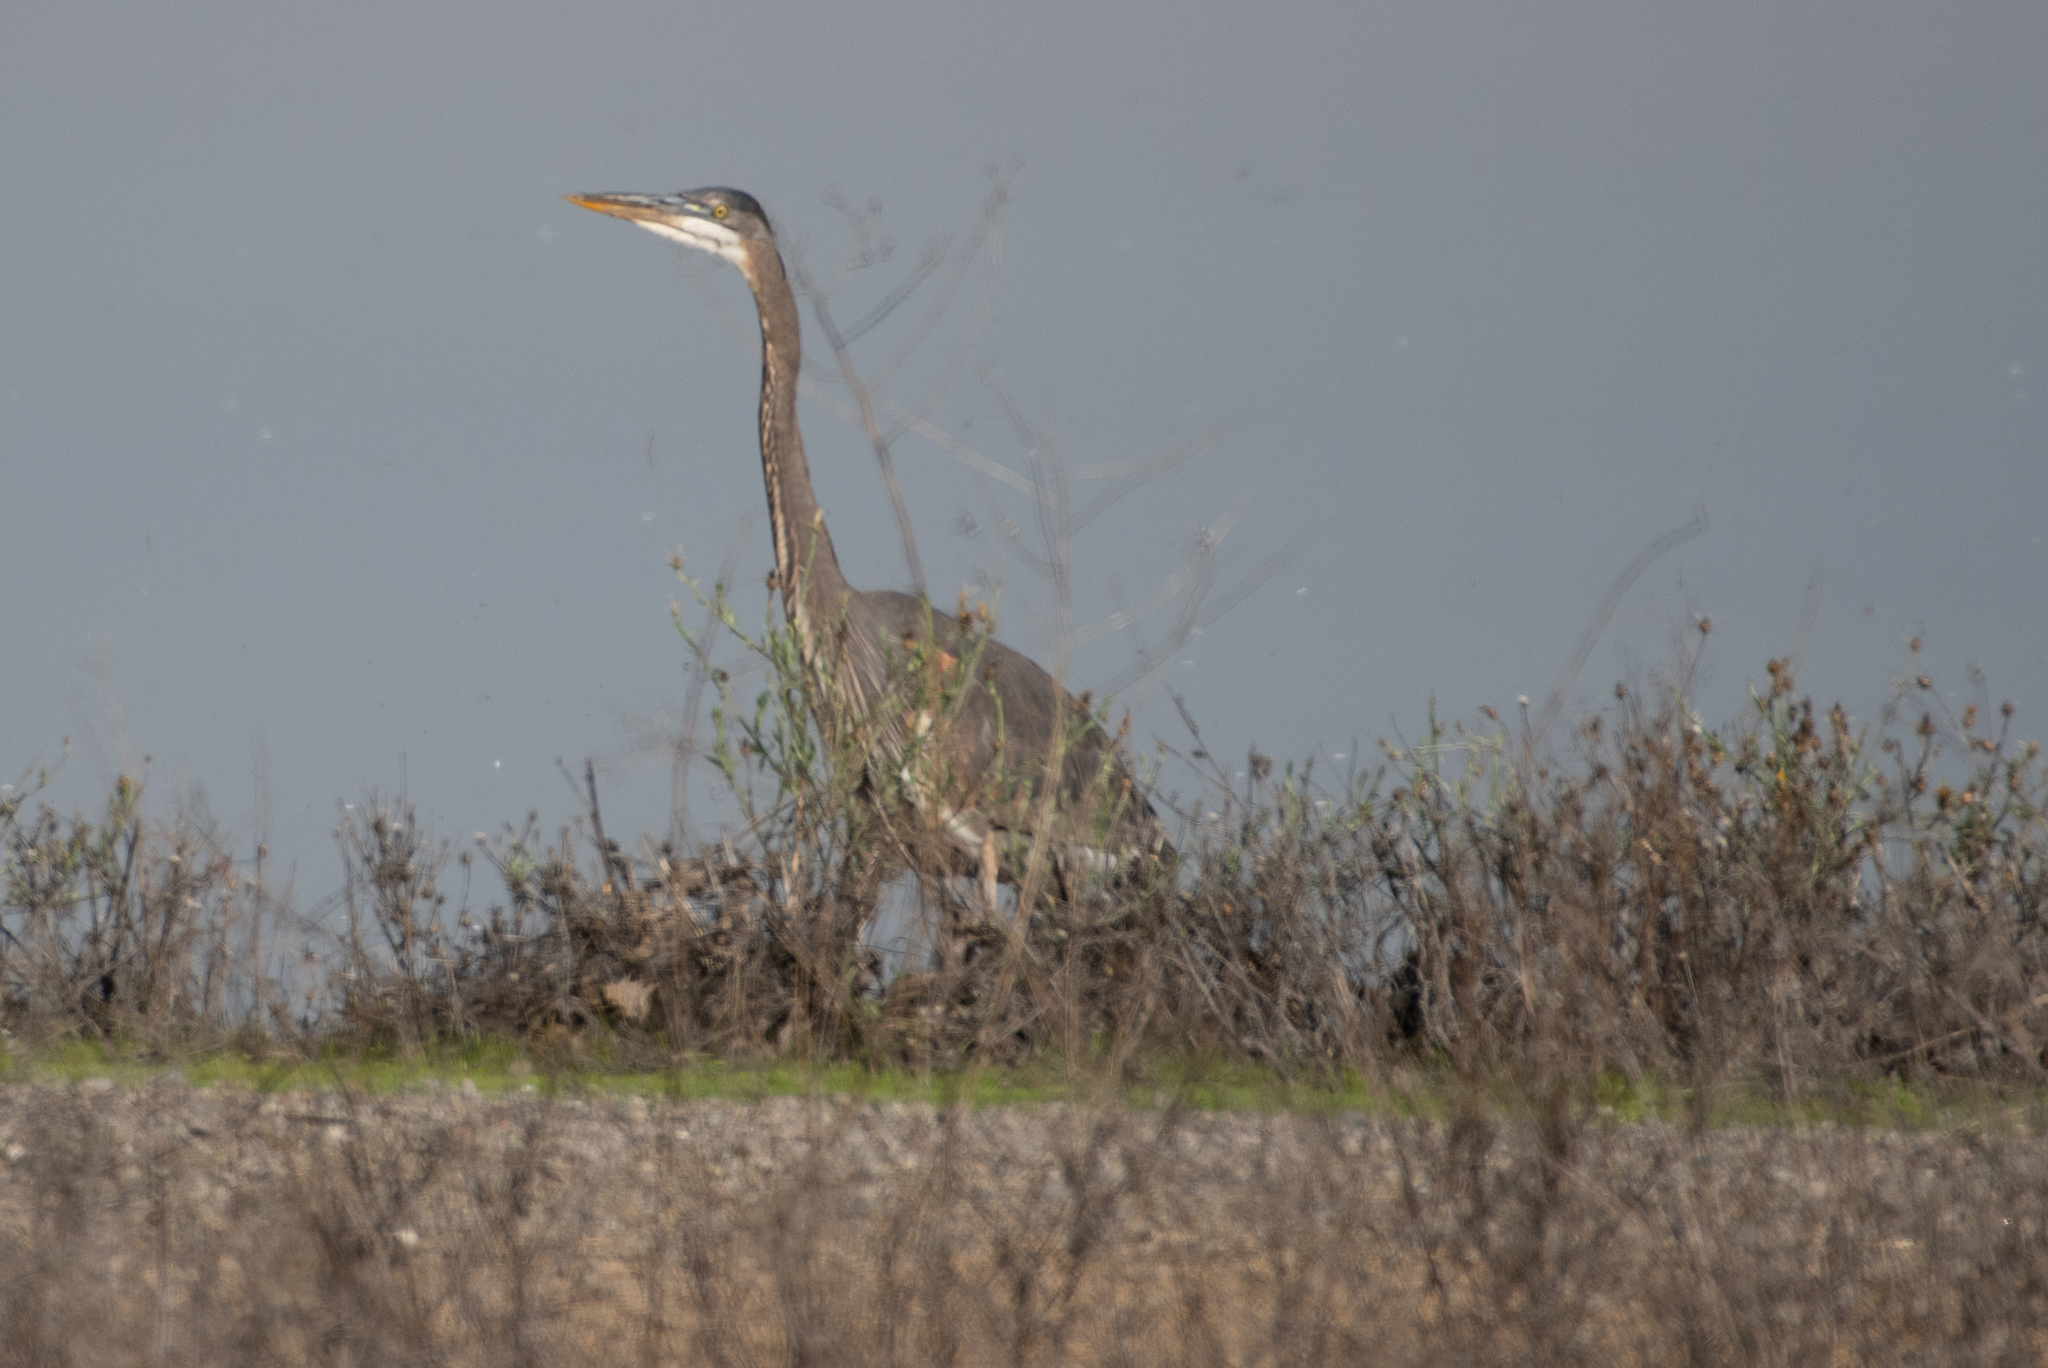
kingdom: Animalia
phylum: Chordata
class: Aves
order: Pelecaniformes
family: Ardeidae
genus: Ardea
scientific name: Ardea herodias
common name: Great blue heron
